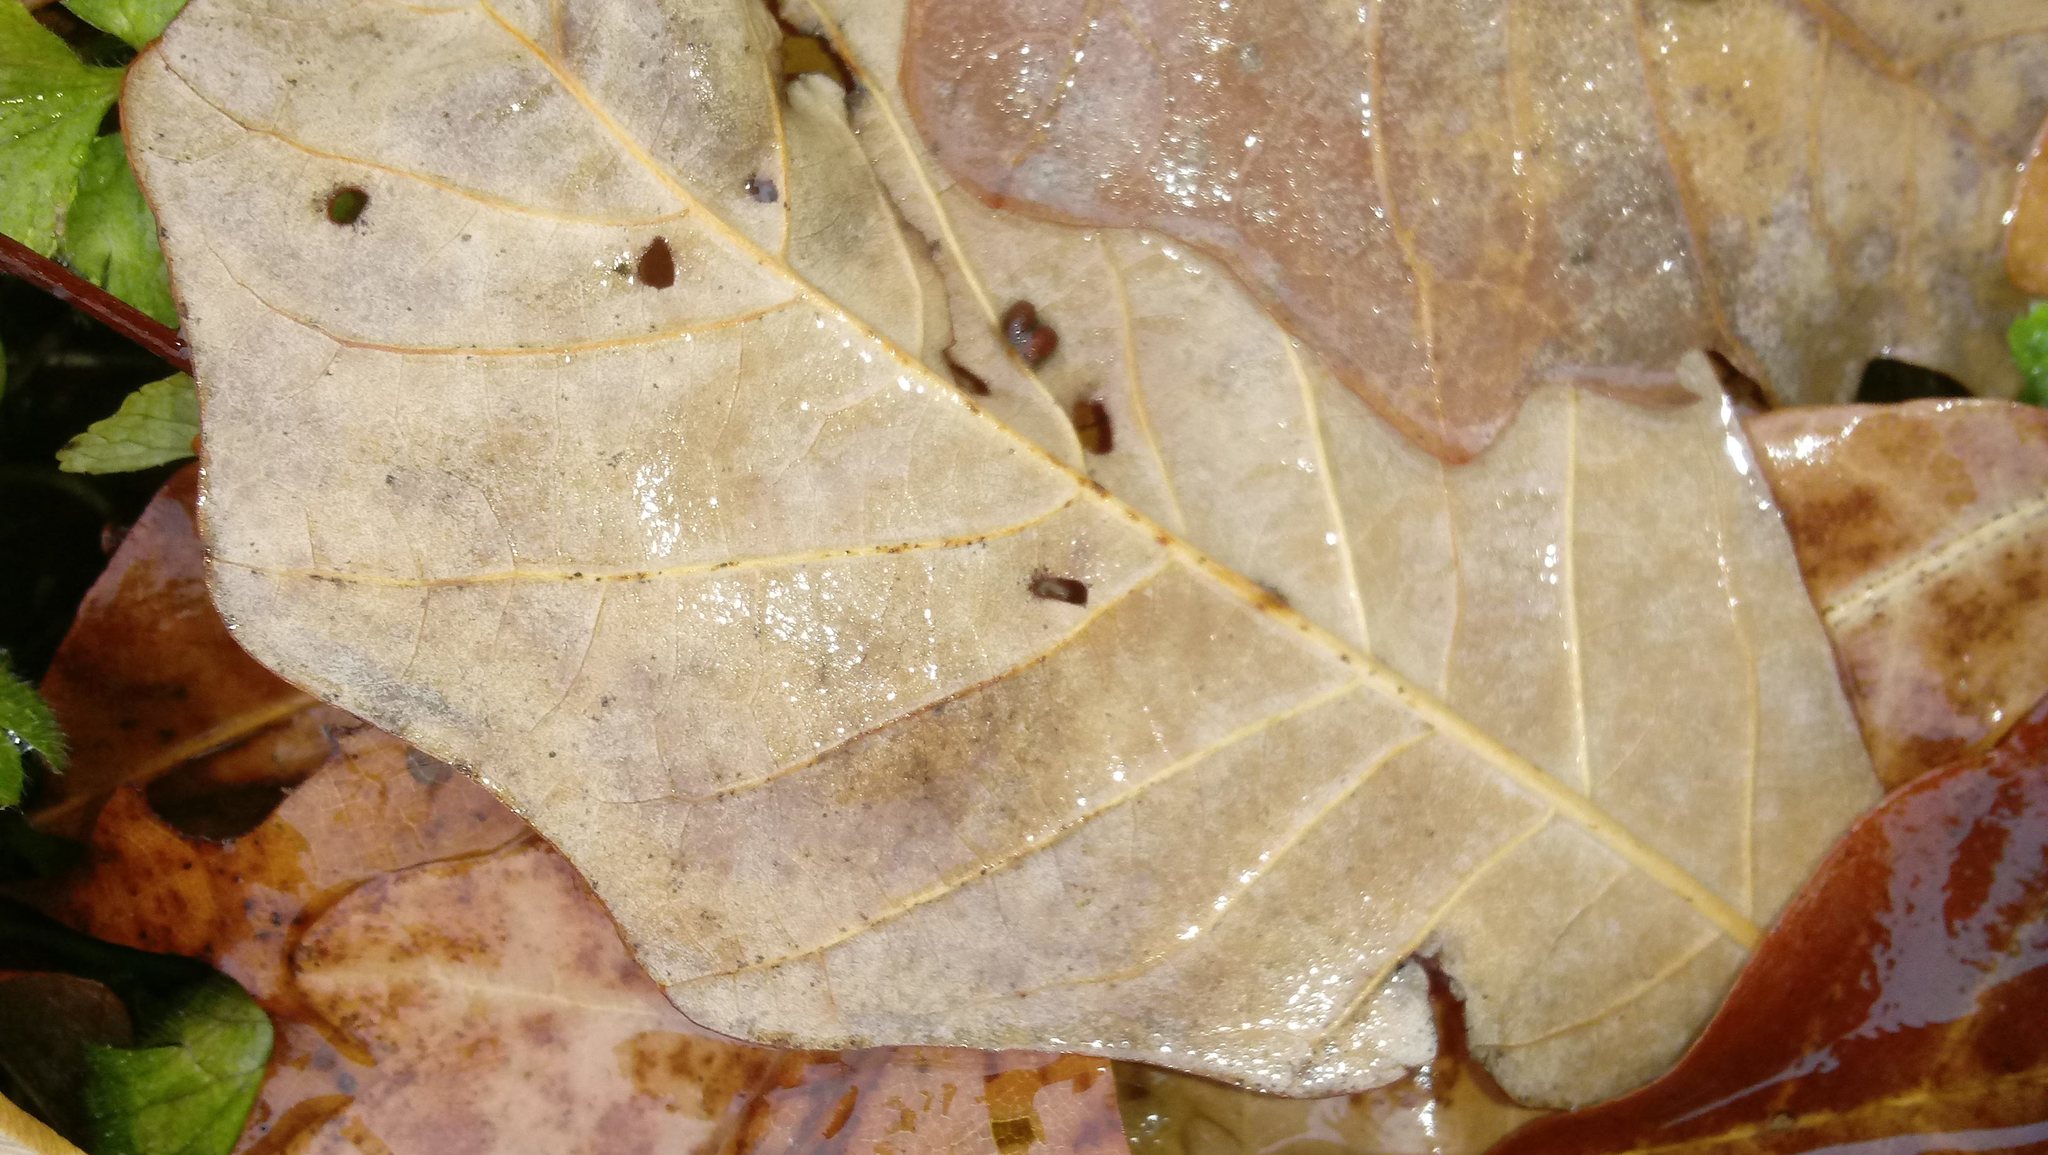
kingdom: Animalia
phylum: Arthropoda
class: Insecta
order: Hymenoptera
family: Cynipidae
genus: Andricus
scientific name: Andricus Druon ignotum
